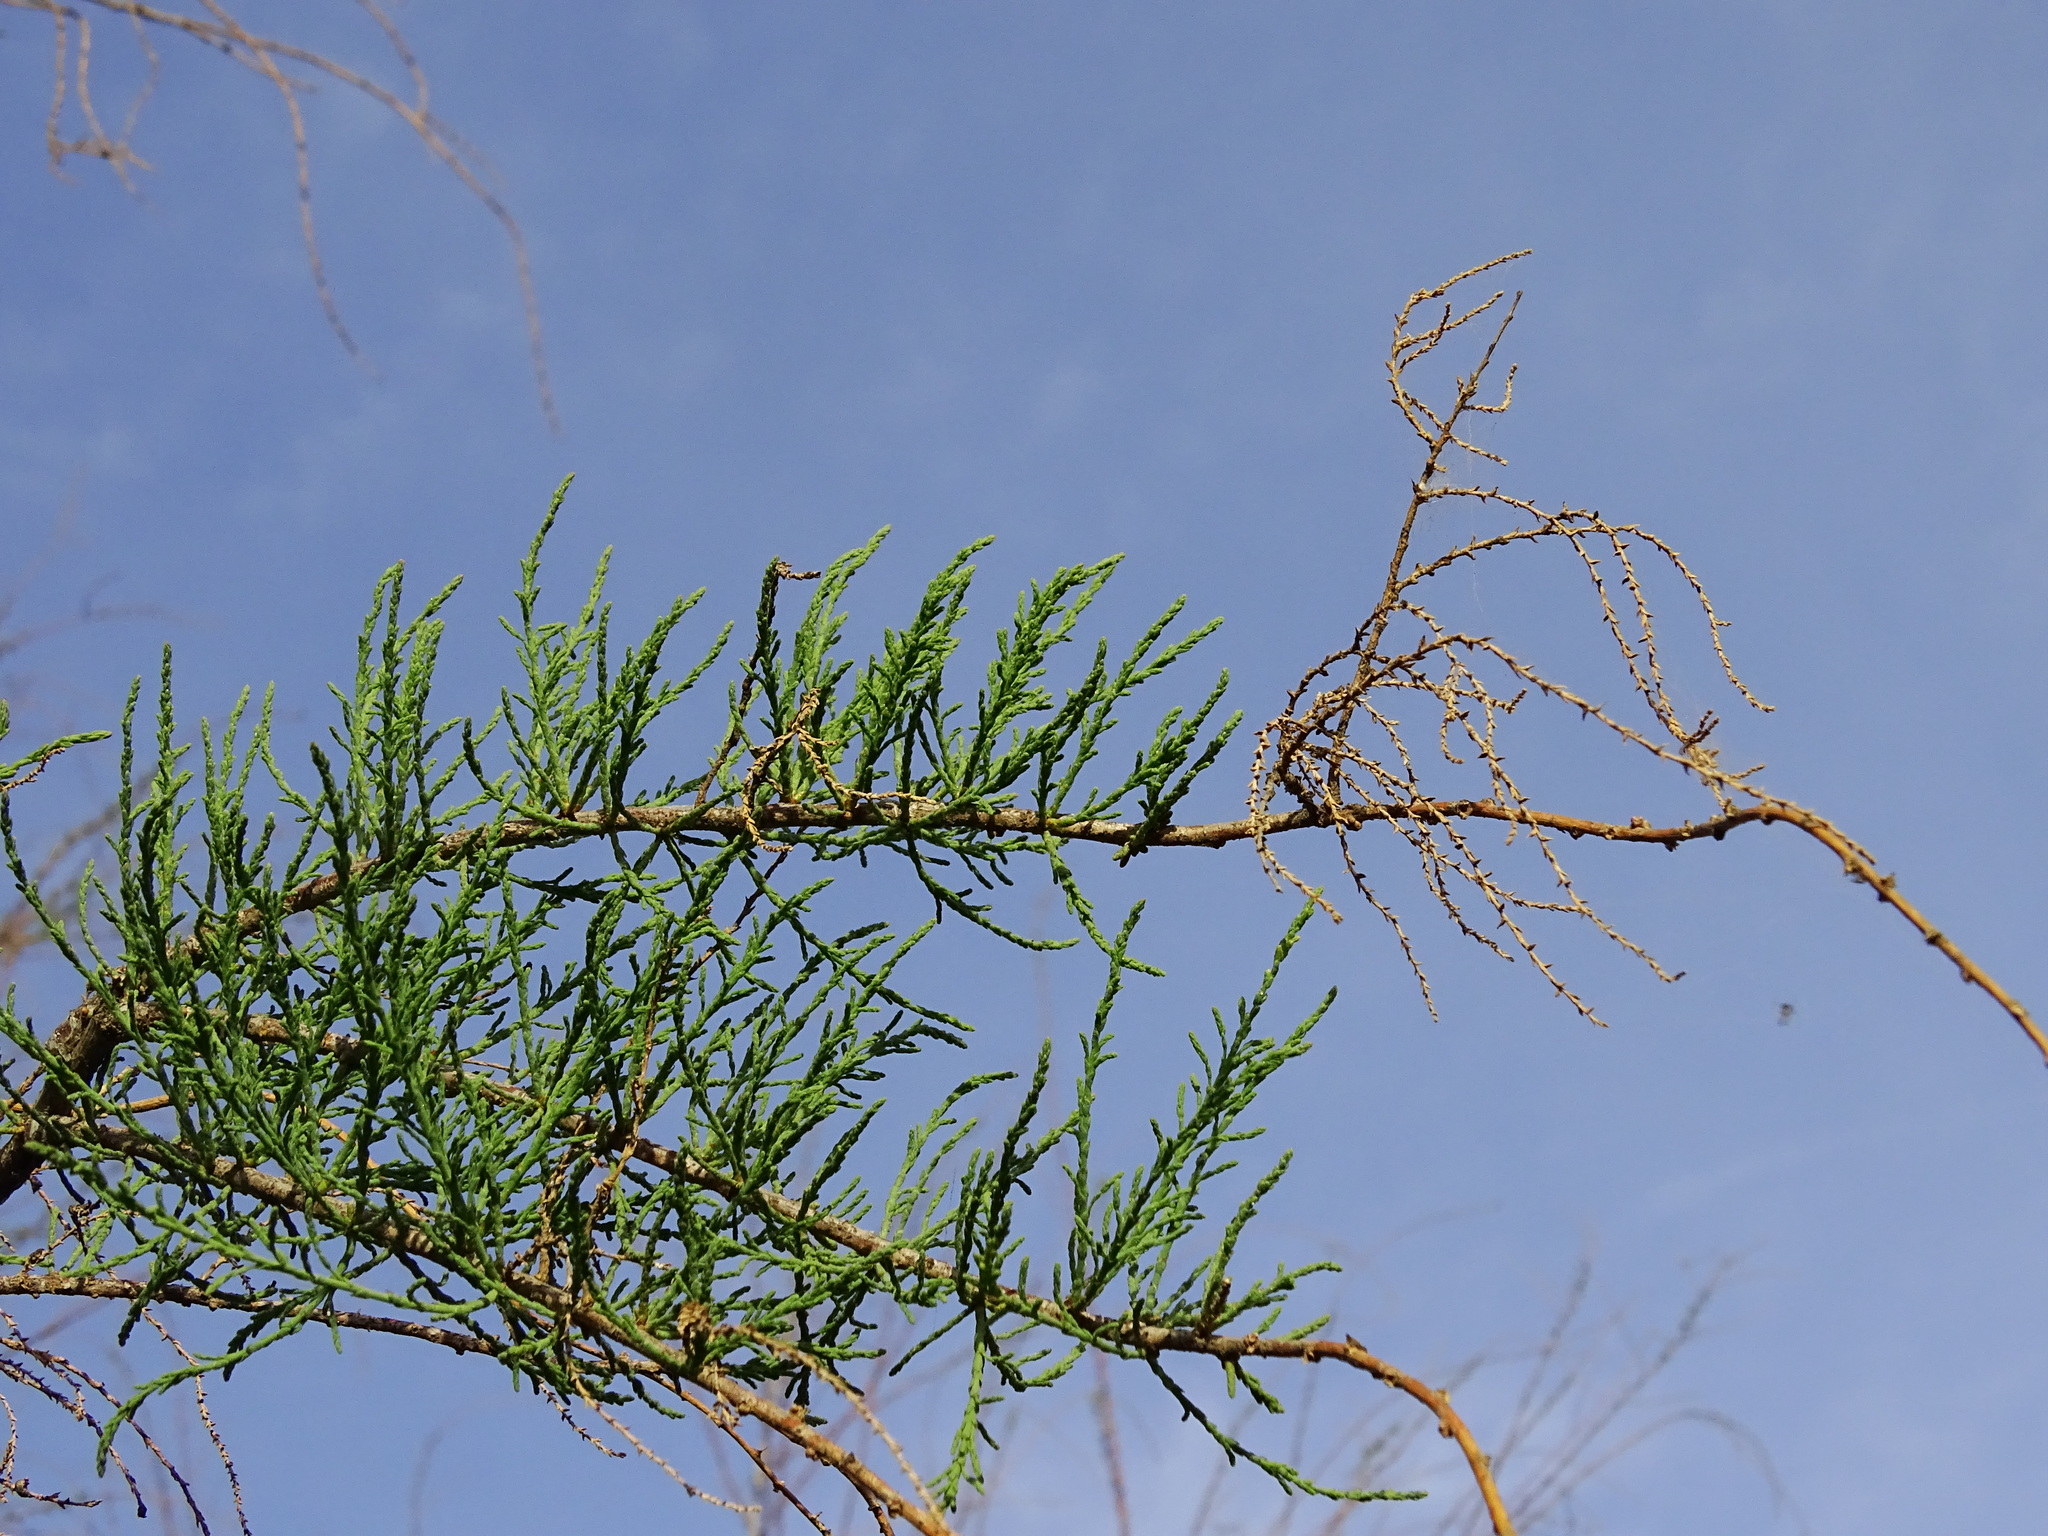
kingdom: Plantae
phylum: Tracheophyta
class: Magnoliopsida
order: Caryophyllales
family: Tamaricaceae
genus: Tamarix
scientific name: Tamarix
